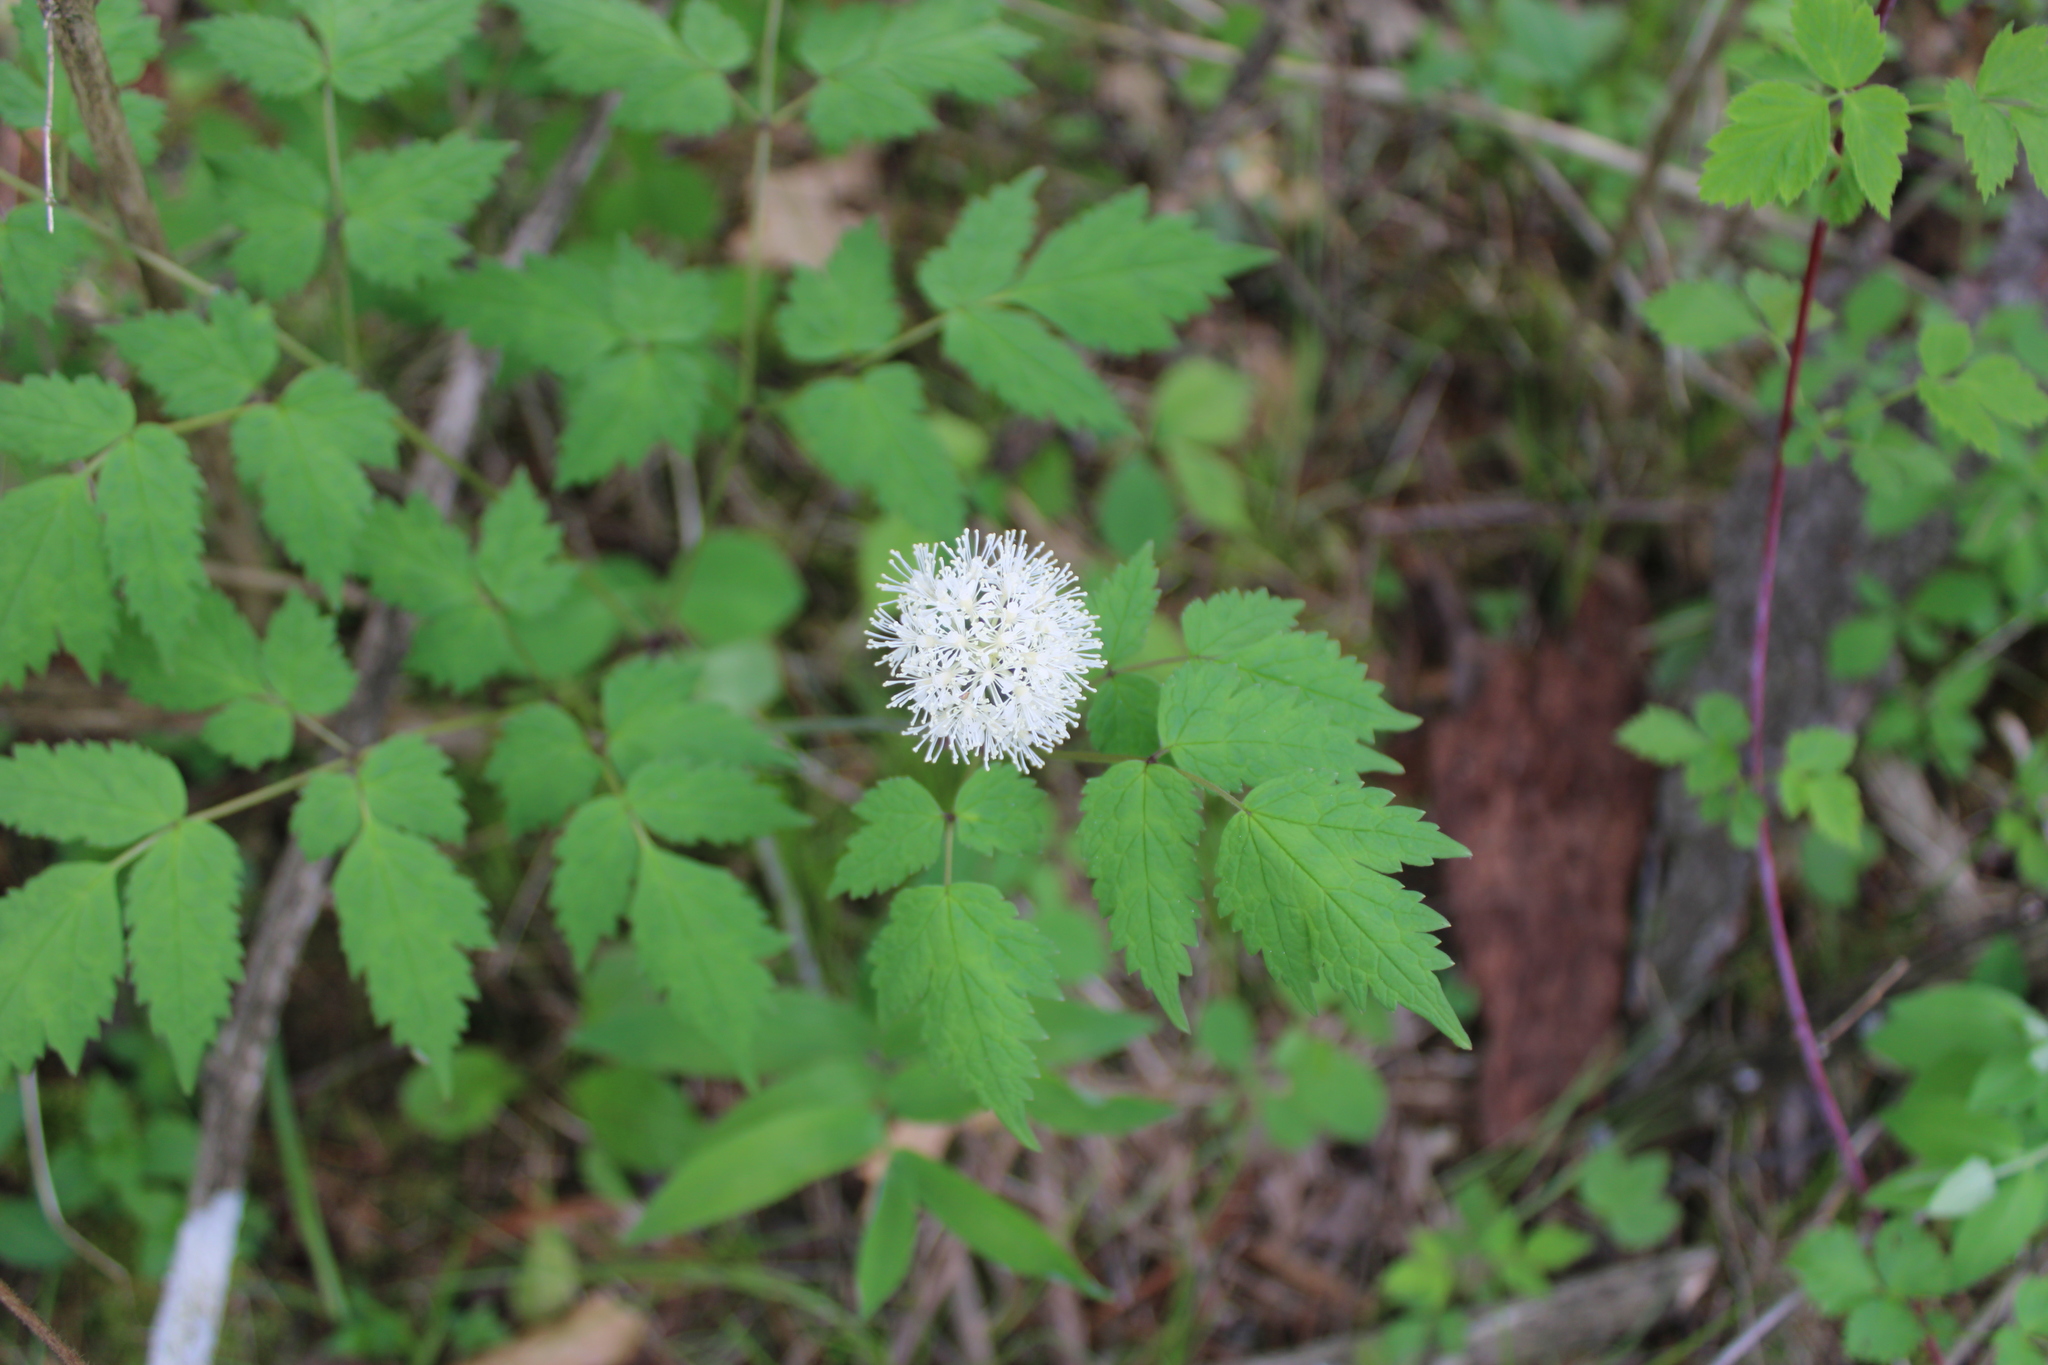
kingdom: Plantae
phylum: Tracheophyta
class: Magnoliopsida
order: Ranunculales
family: Ranunculaceae
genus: Actaea
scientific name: Actaea pachypoda
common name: Doll's-eyes
